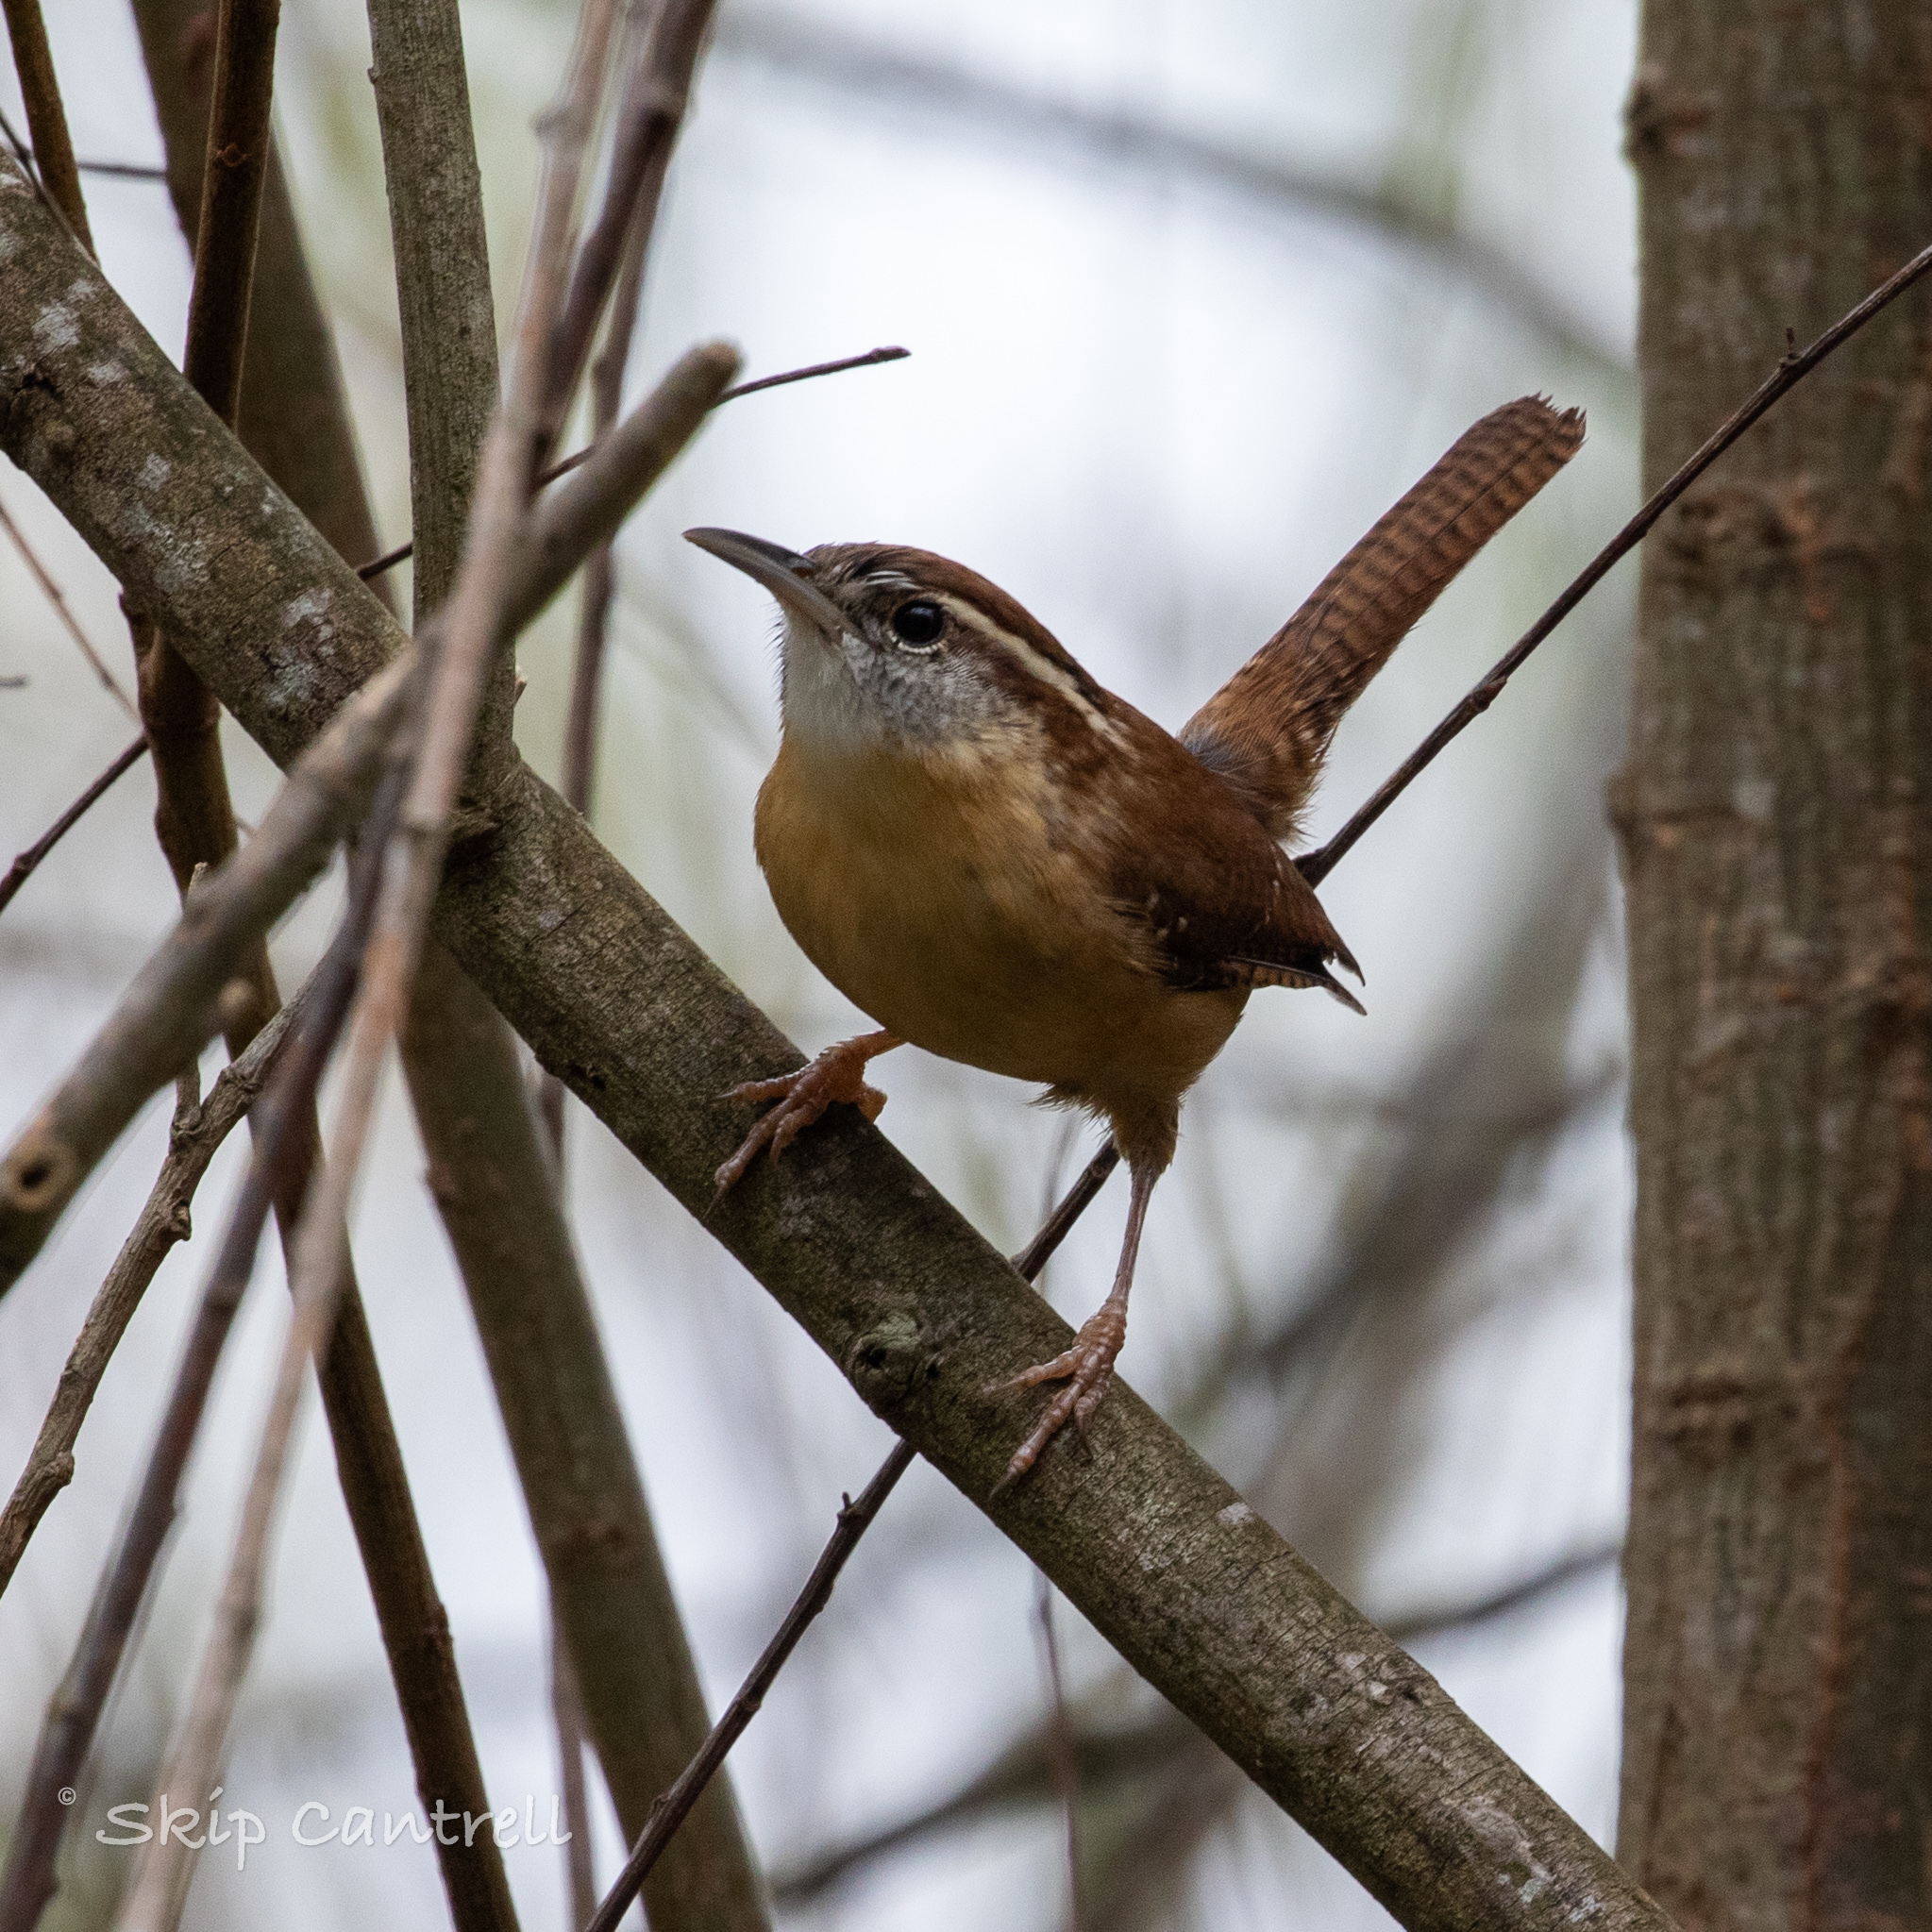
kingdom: Animalia
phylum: Chordata
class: Aves
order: Passeriformes
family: Troglodytidae
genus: Thryothorus
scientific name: Thryothorus ludovicianus
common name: Carolina wren
